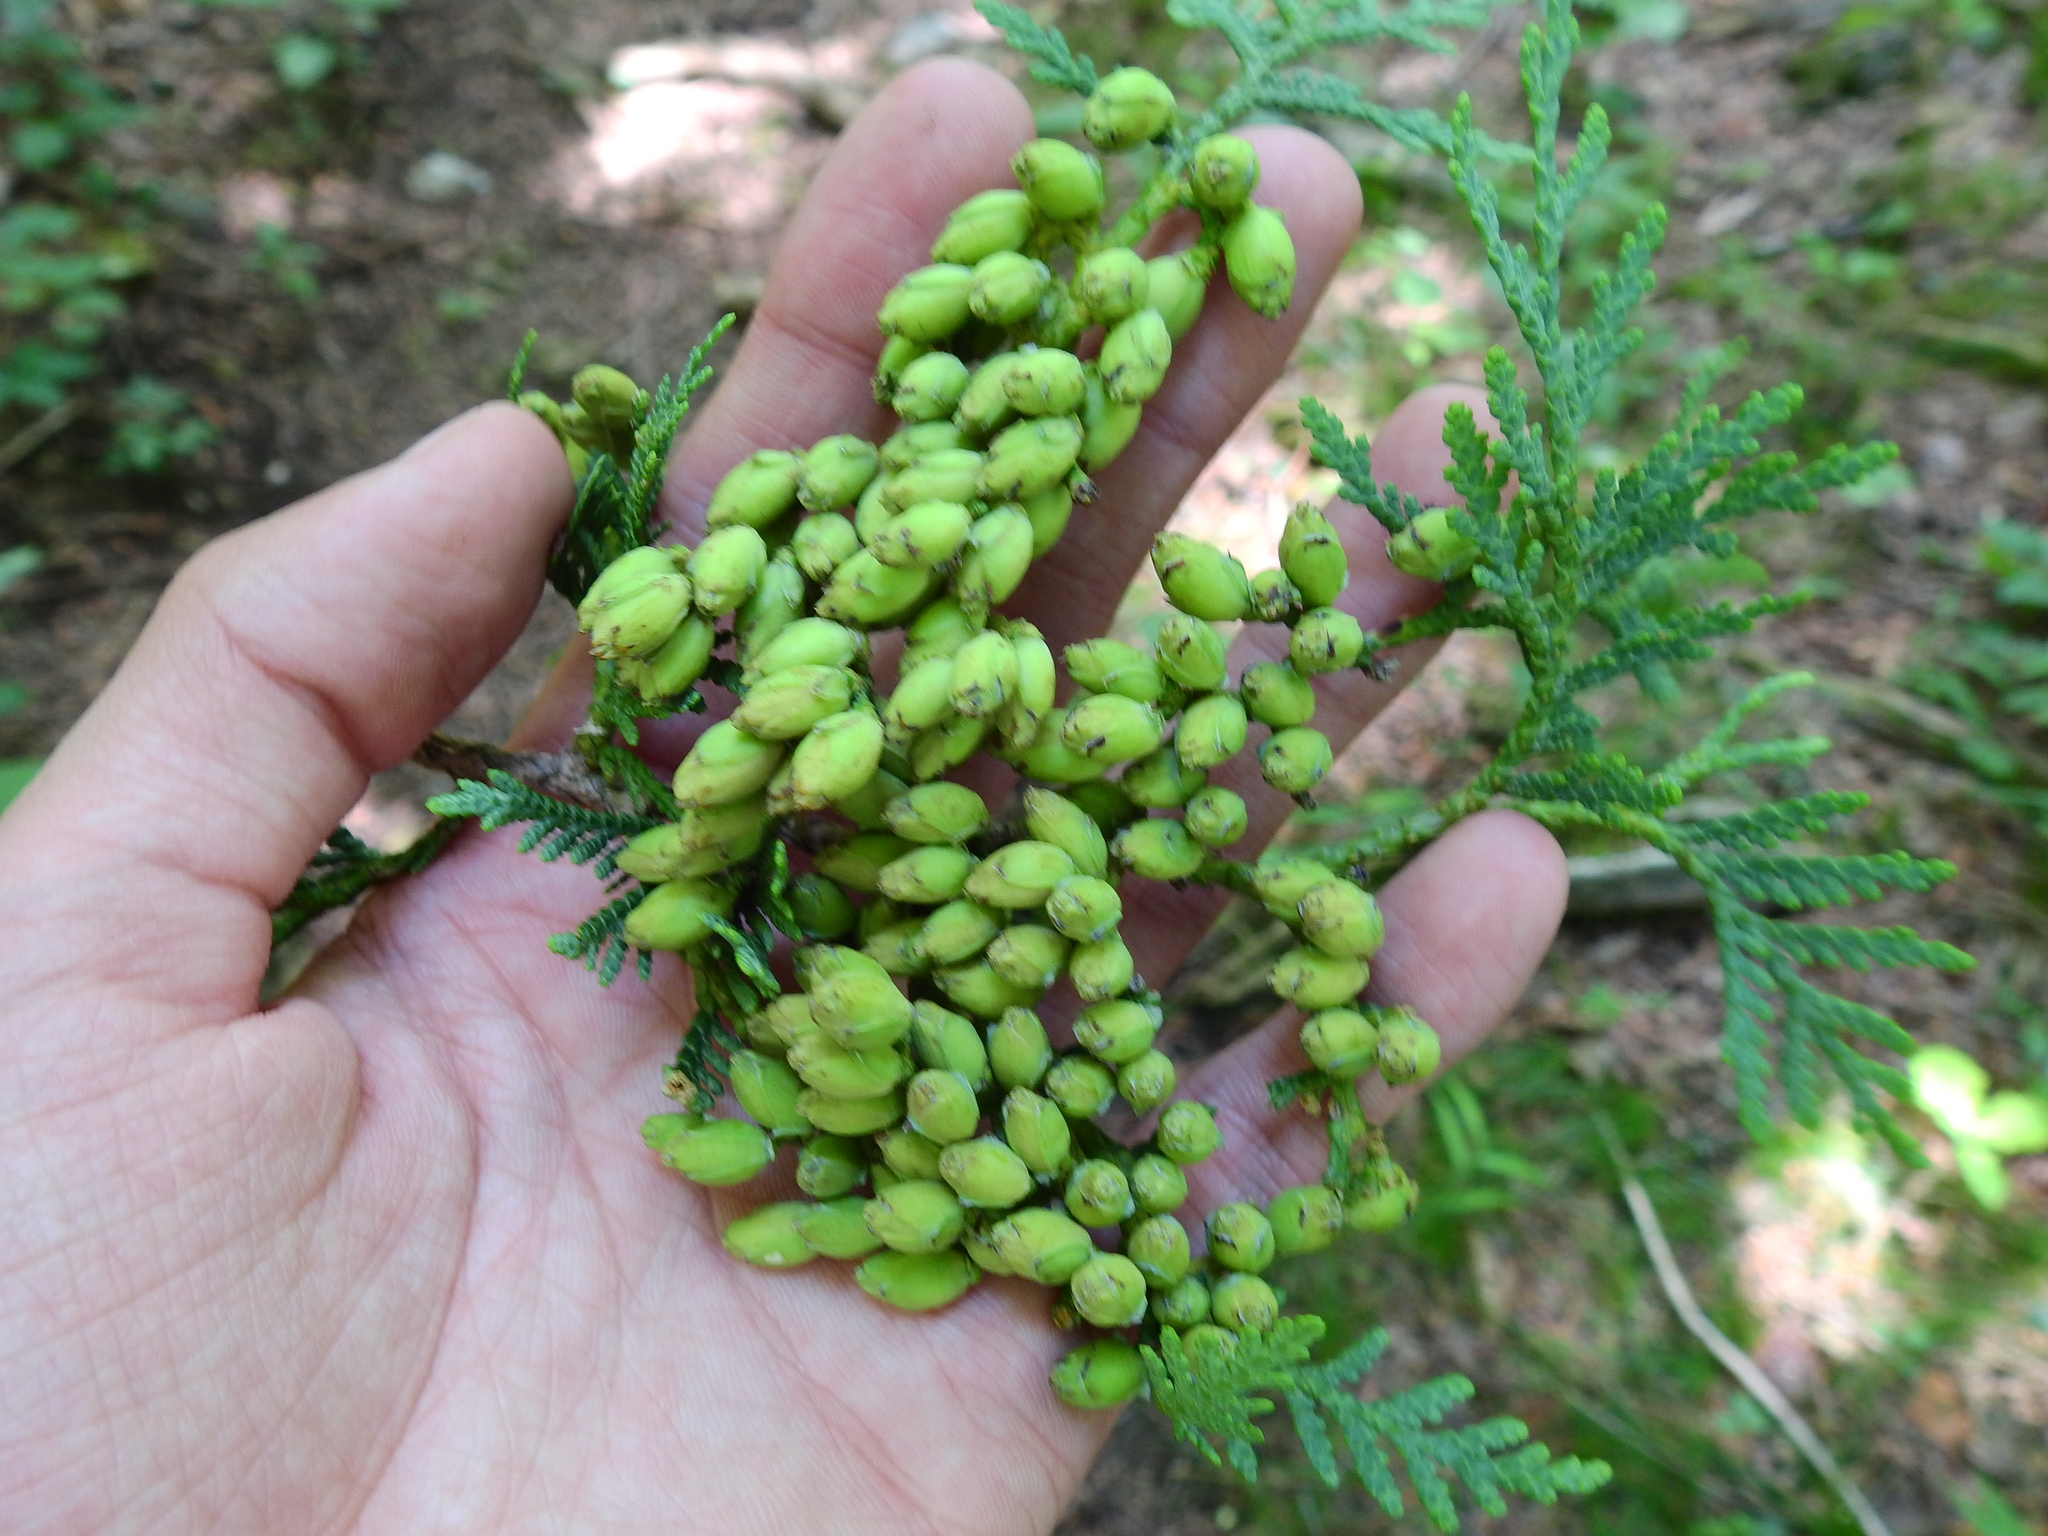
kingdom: Plantae
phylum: Tracheophyta
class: Pinopsida
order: Pinales
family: Cupressaceae
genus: Thuja
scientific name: Thuja occidentalis
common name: Northern white-cedar
